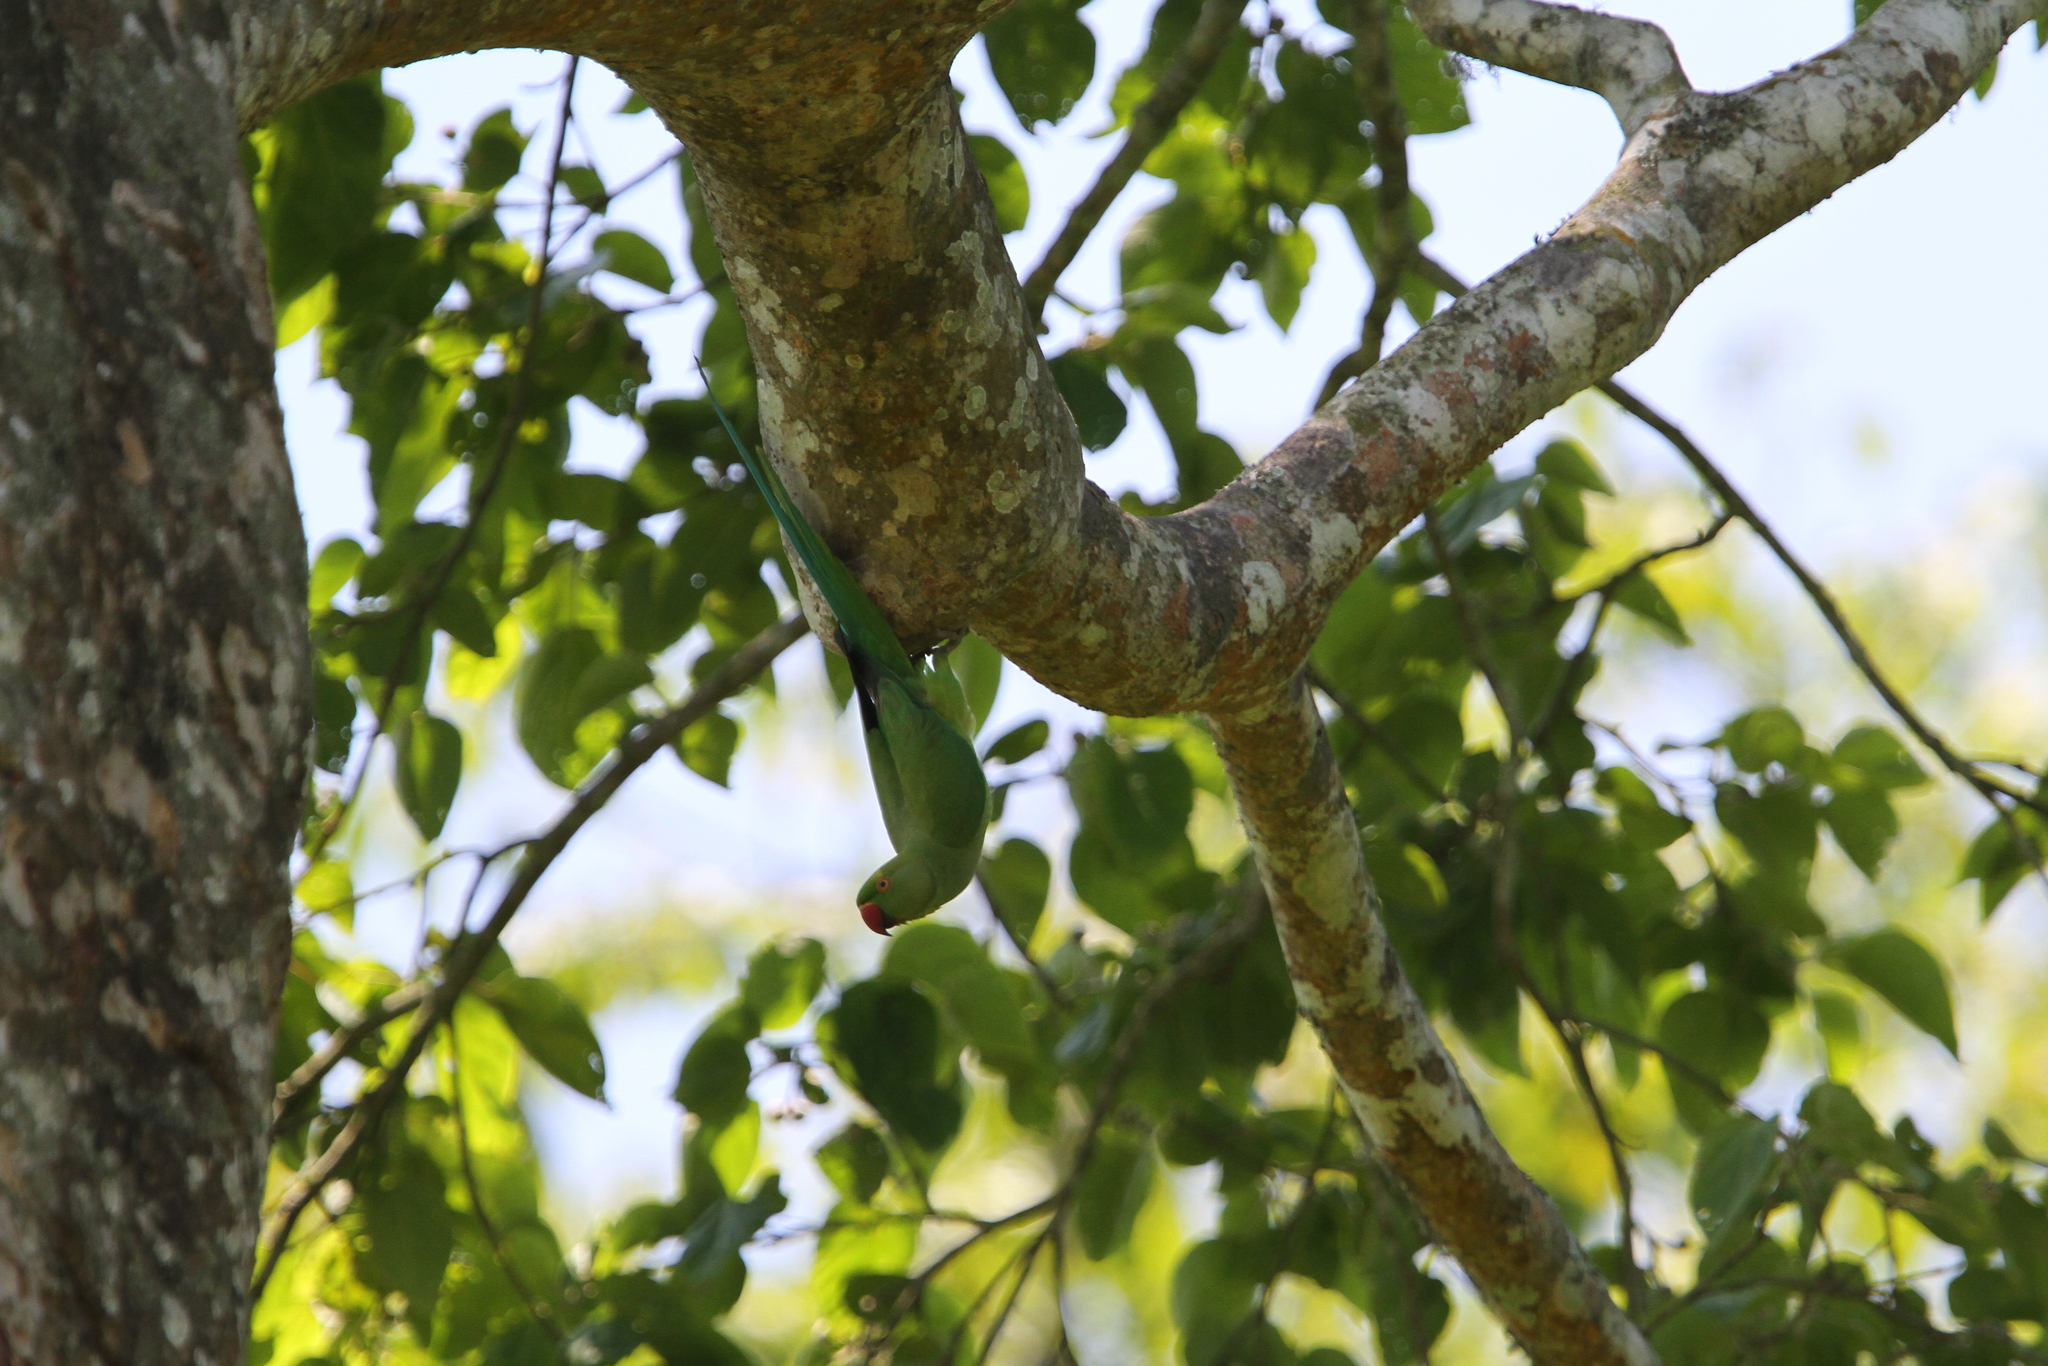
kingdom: Animalia
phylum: Chordata
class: Aves
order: Psittaciformes
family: Psittacidae
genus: Psittacula
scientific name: Psittacula krameri
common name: Rose-ringed parakeet
